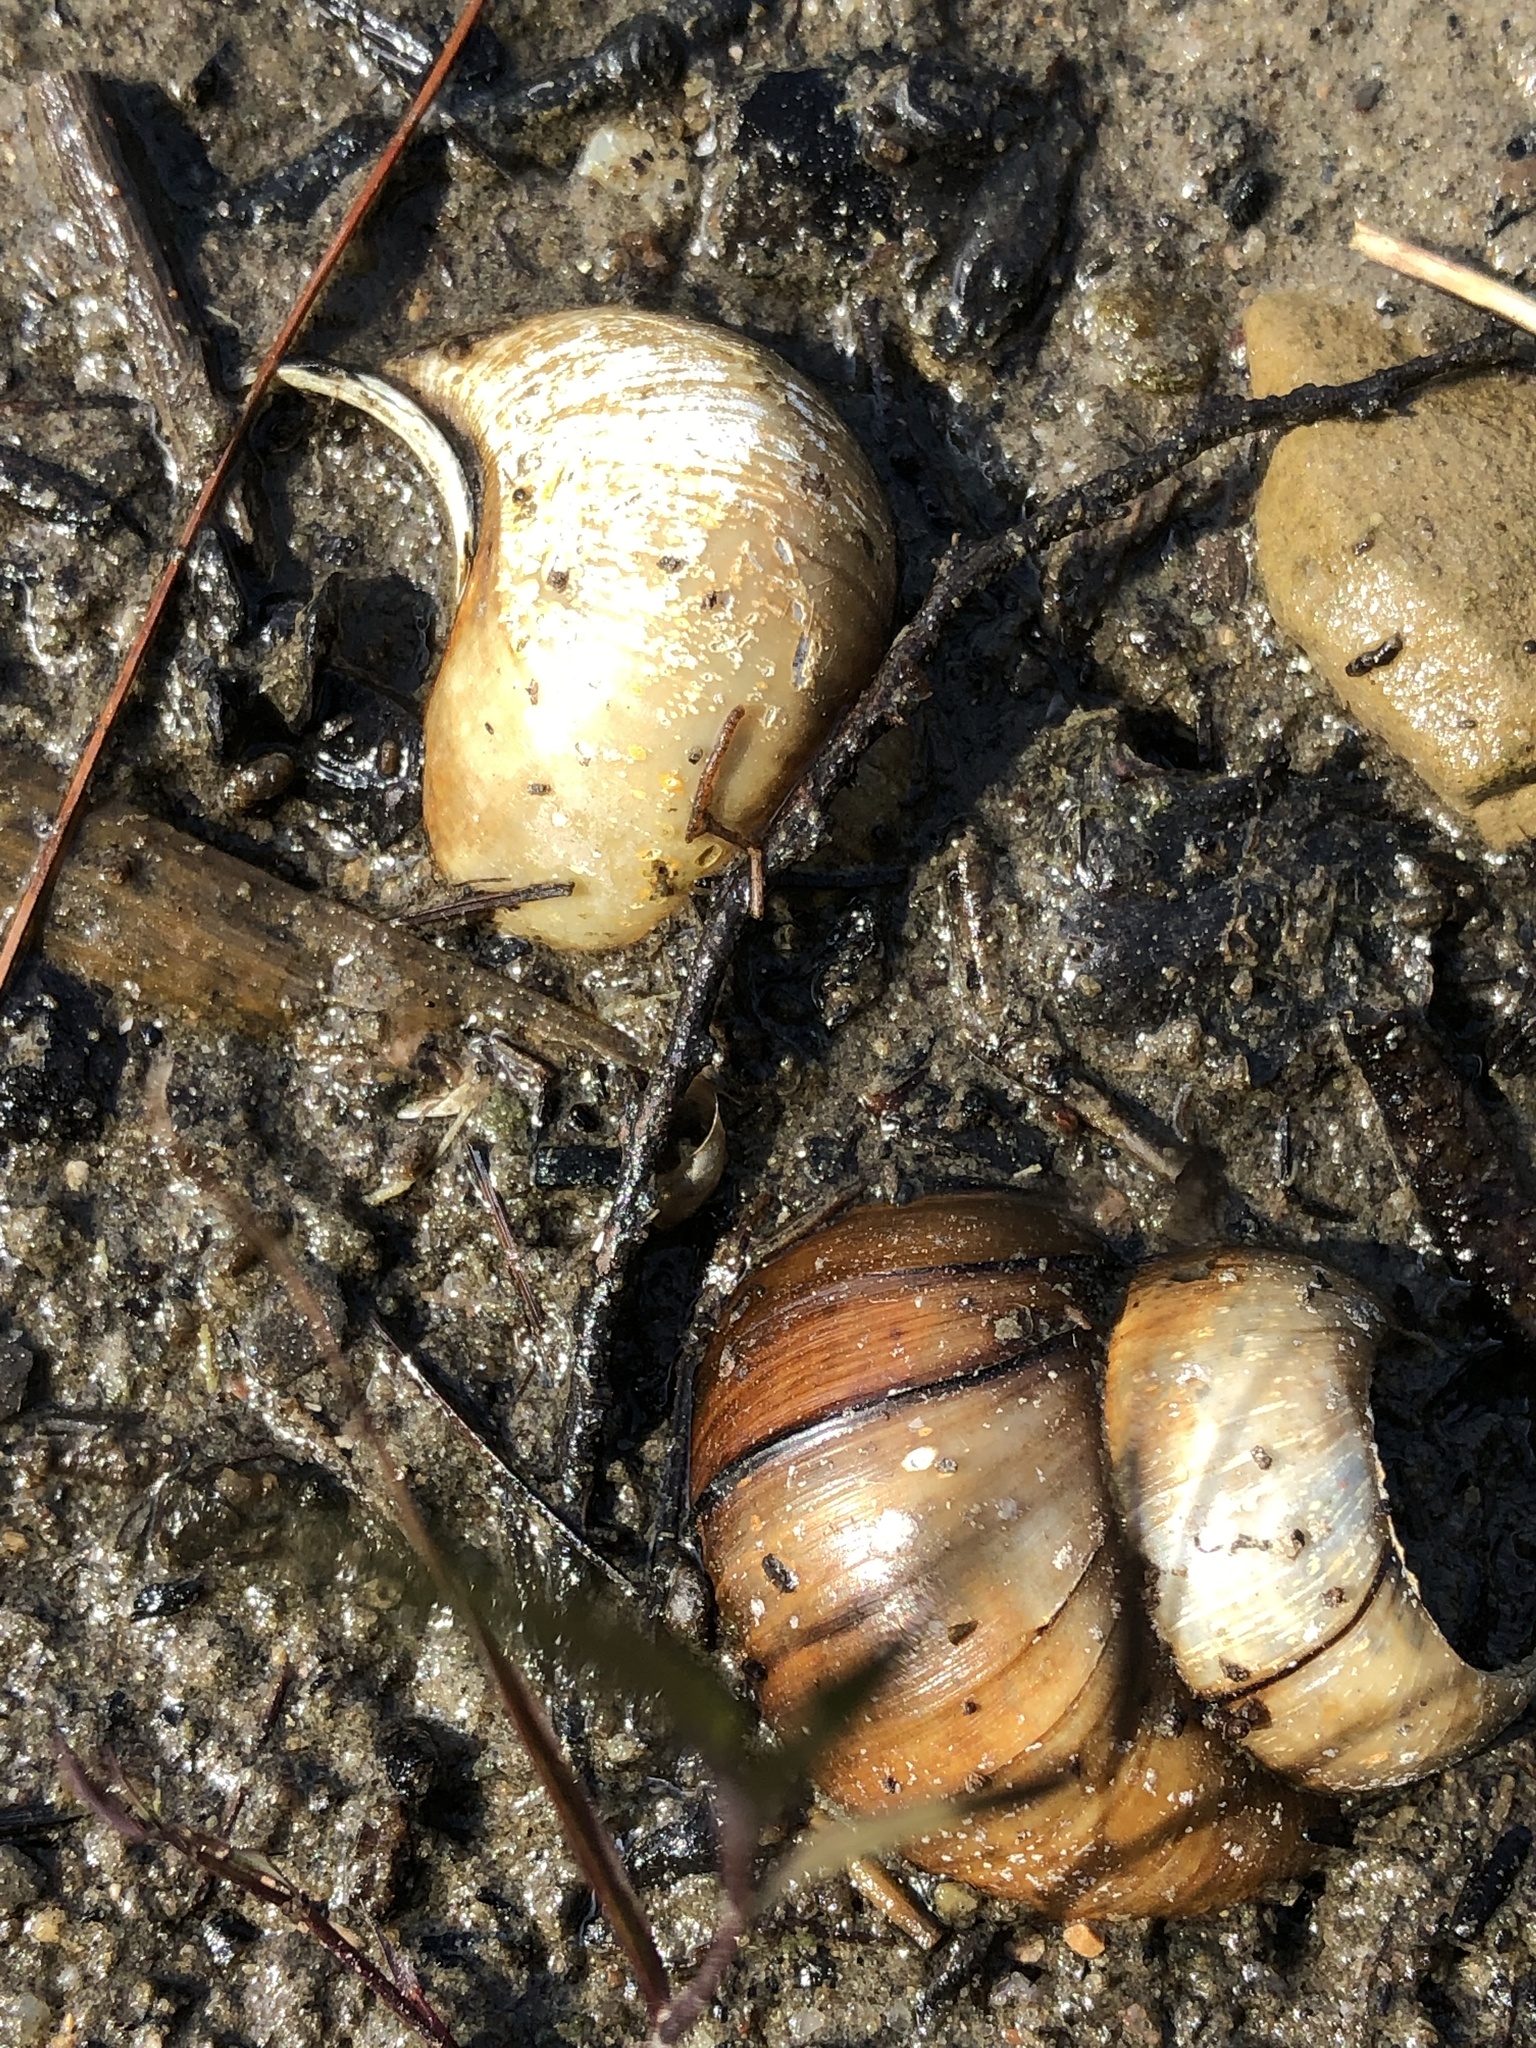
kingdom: Animalia
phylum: Mollusca
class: Gastropoda
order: Architaenioglossa
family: Viviparidae
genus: Cipangopaludina
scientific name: Cipangopaludina chinensis
